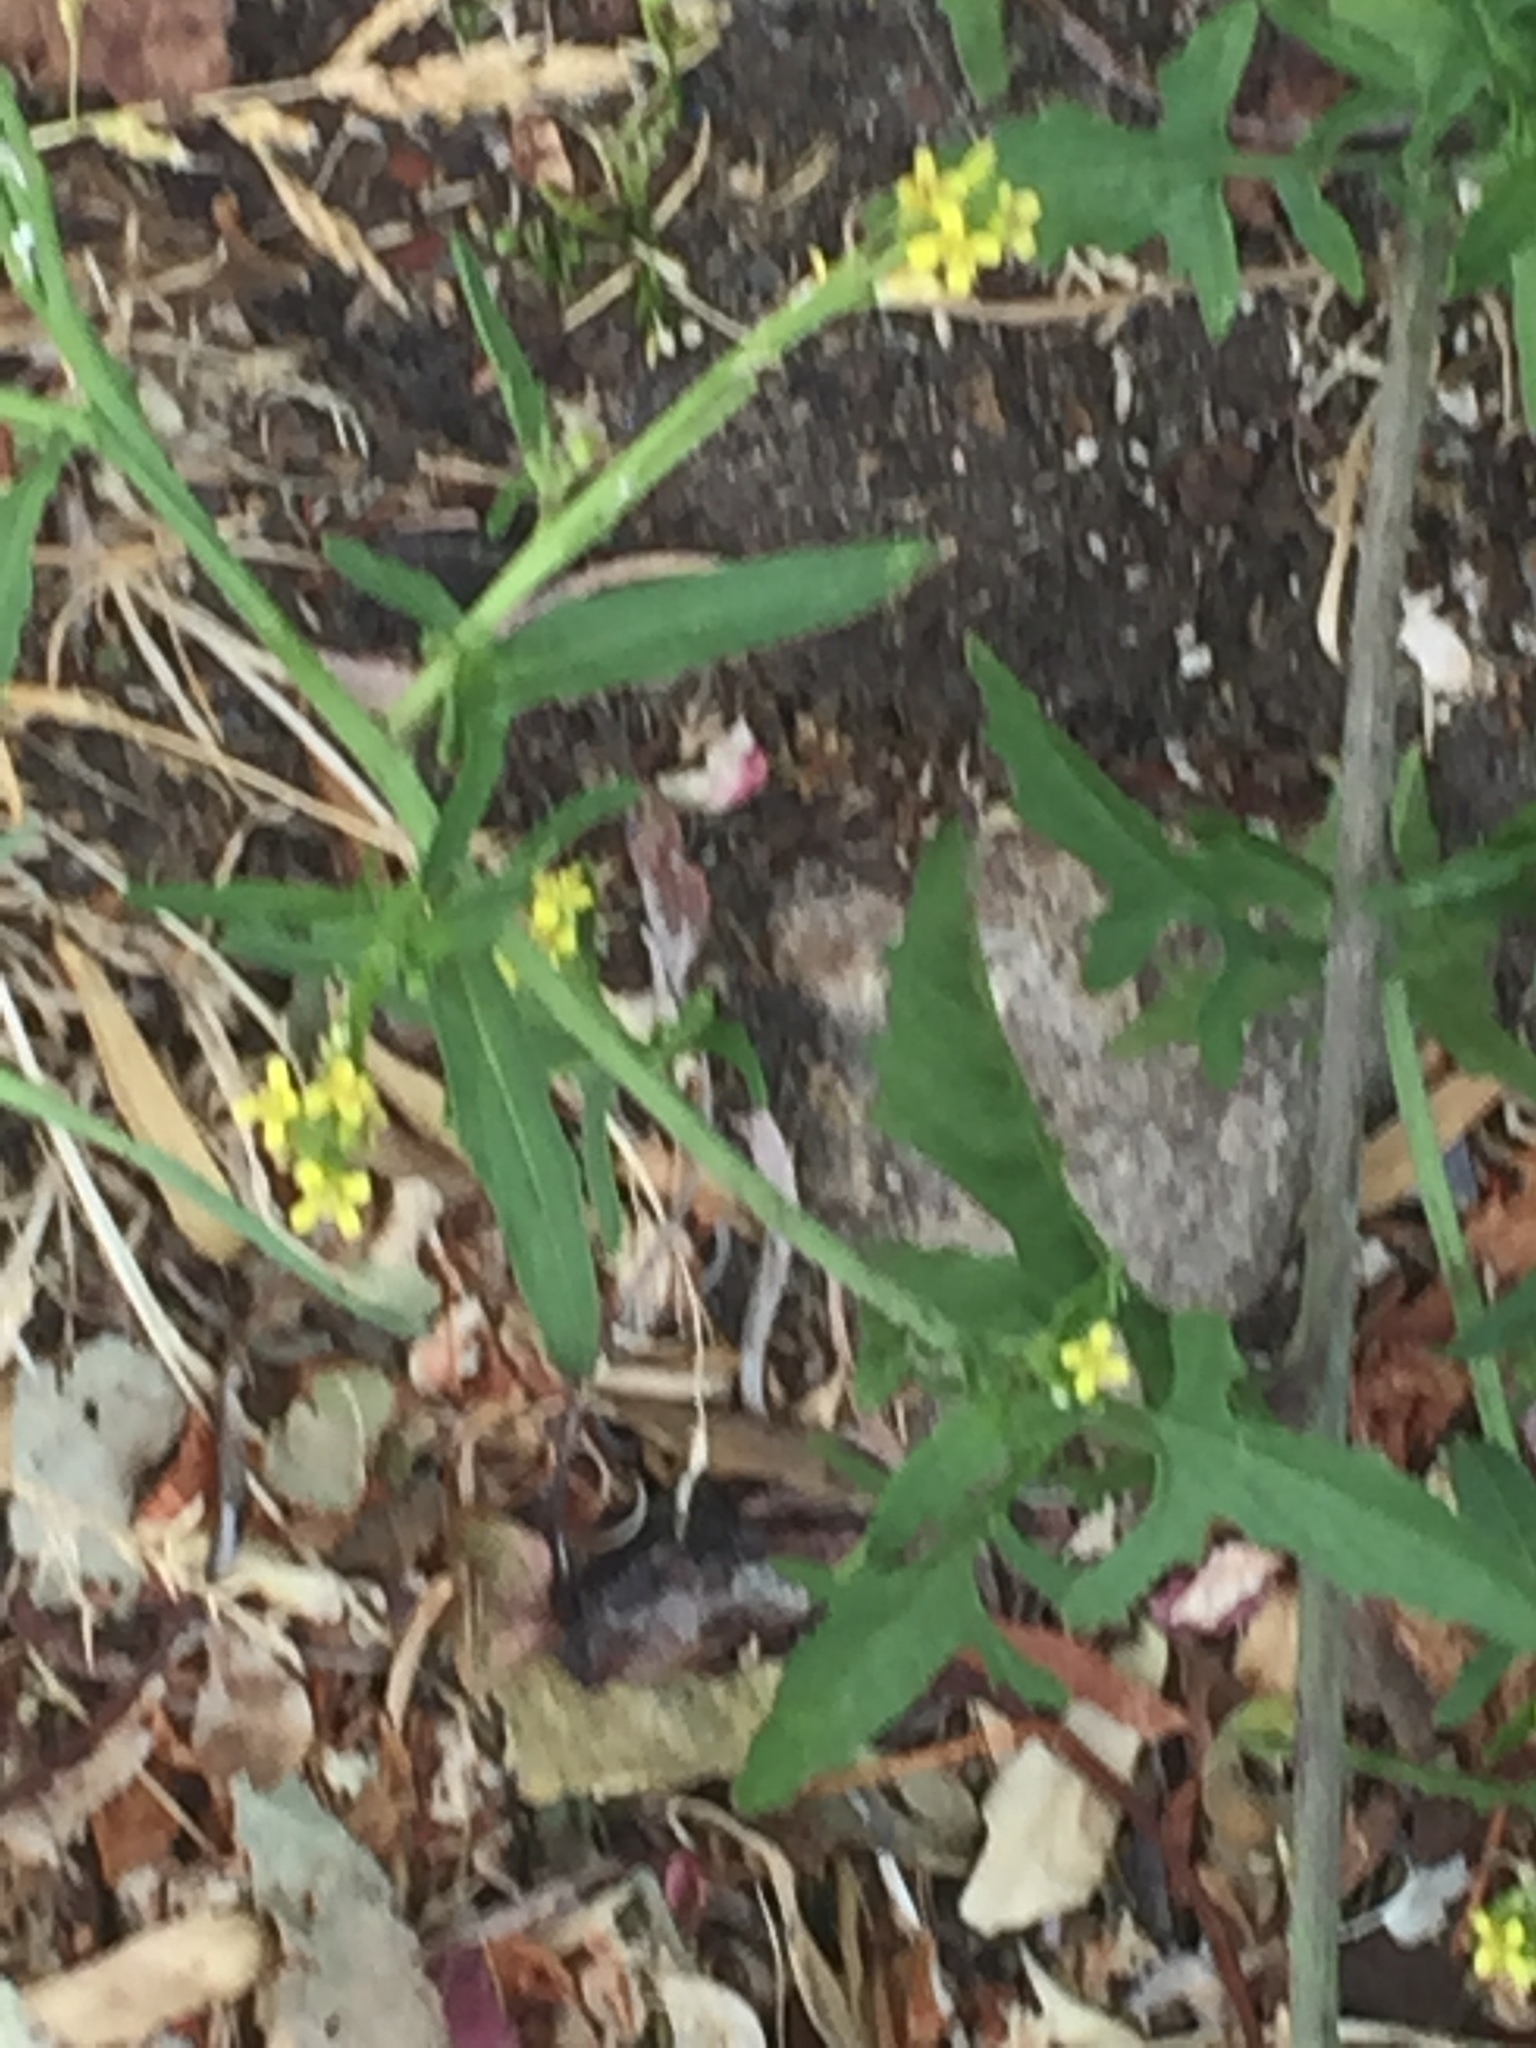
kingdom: Plantae
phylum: Tracheophyta
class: Magnoliopsida
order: Brassicales
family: Brassicaceae
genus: Sisymbrium
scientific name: Sisymbrium officinale
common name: Hedge mustard
